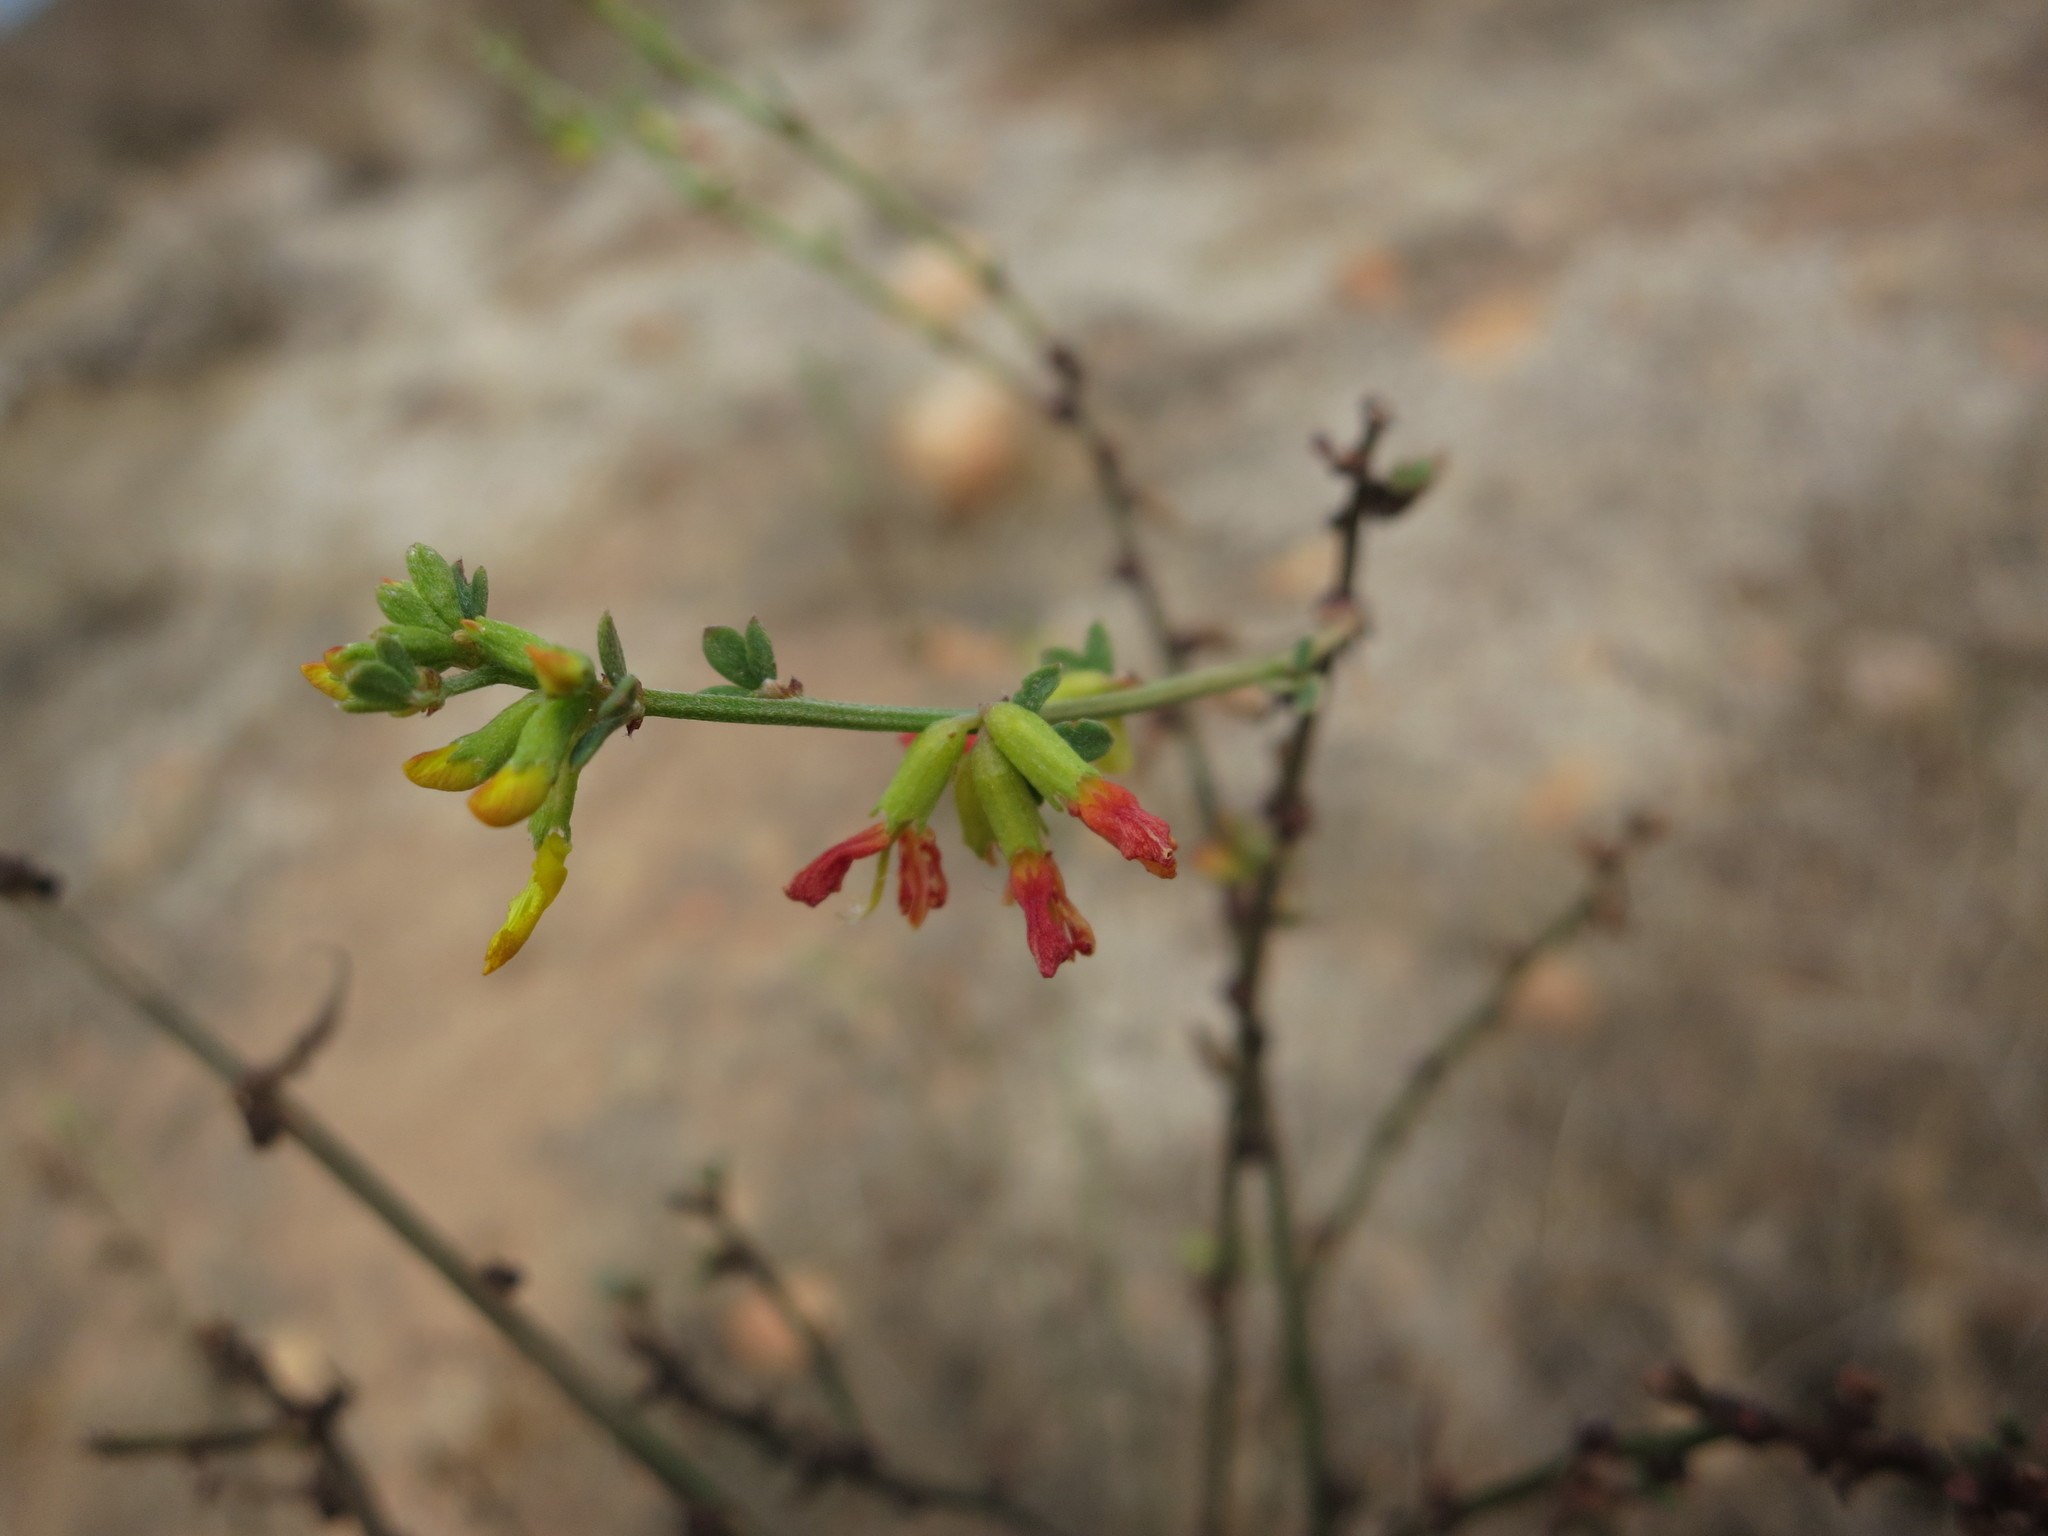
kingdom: Plantae
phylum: Tracheophyta
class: Magnoliopsida
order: Fabales
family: Fabaceae
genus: Acmispon
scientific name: Acmispon glaber
